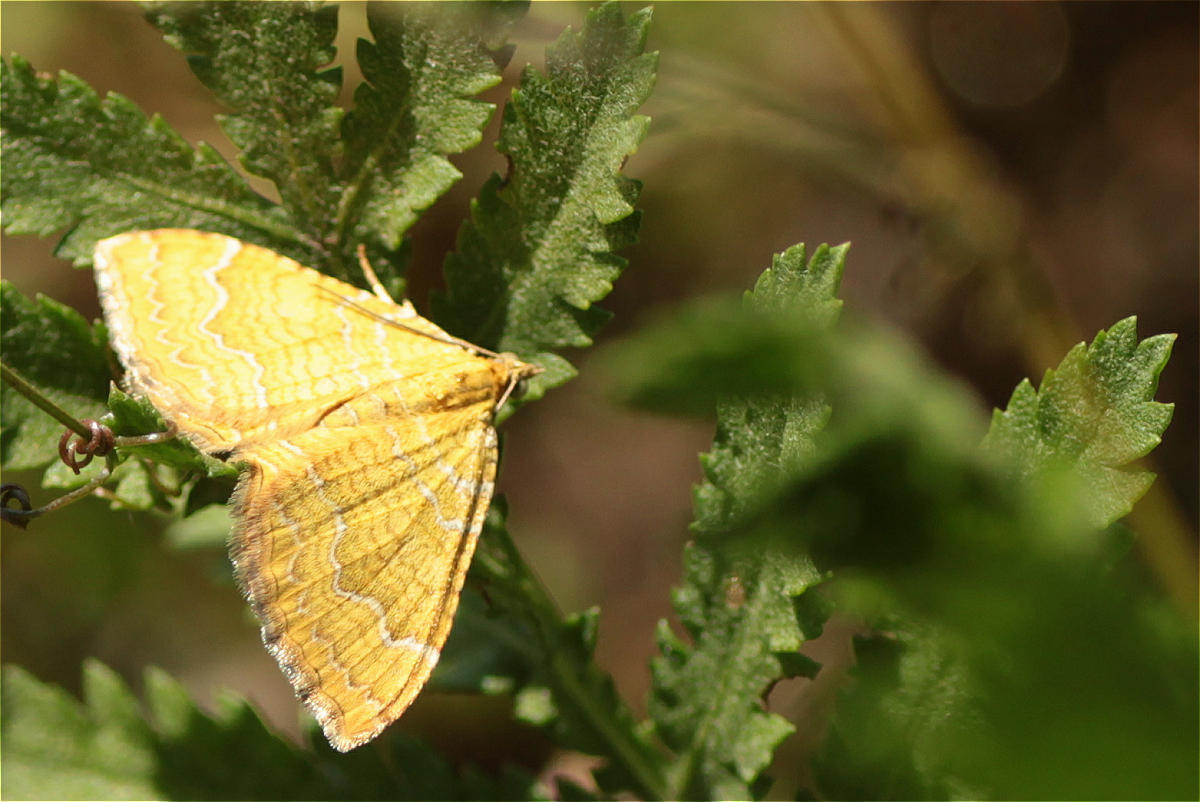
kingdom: Animalia
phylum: Arthropoda
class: Insecta
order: Lepidoptera
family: Geometridae
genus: Camptogramma
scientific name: Camptogramma bilineata
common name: Yellow shell
